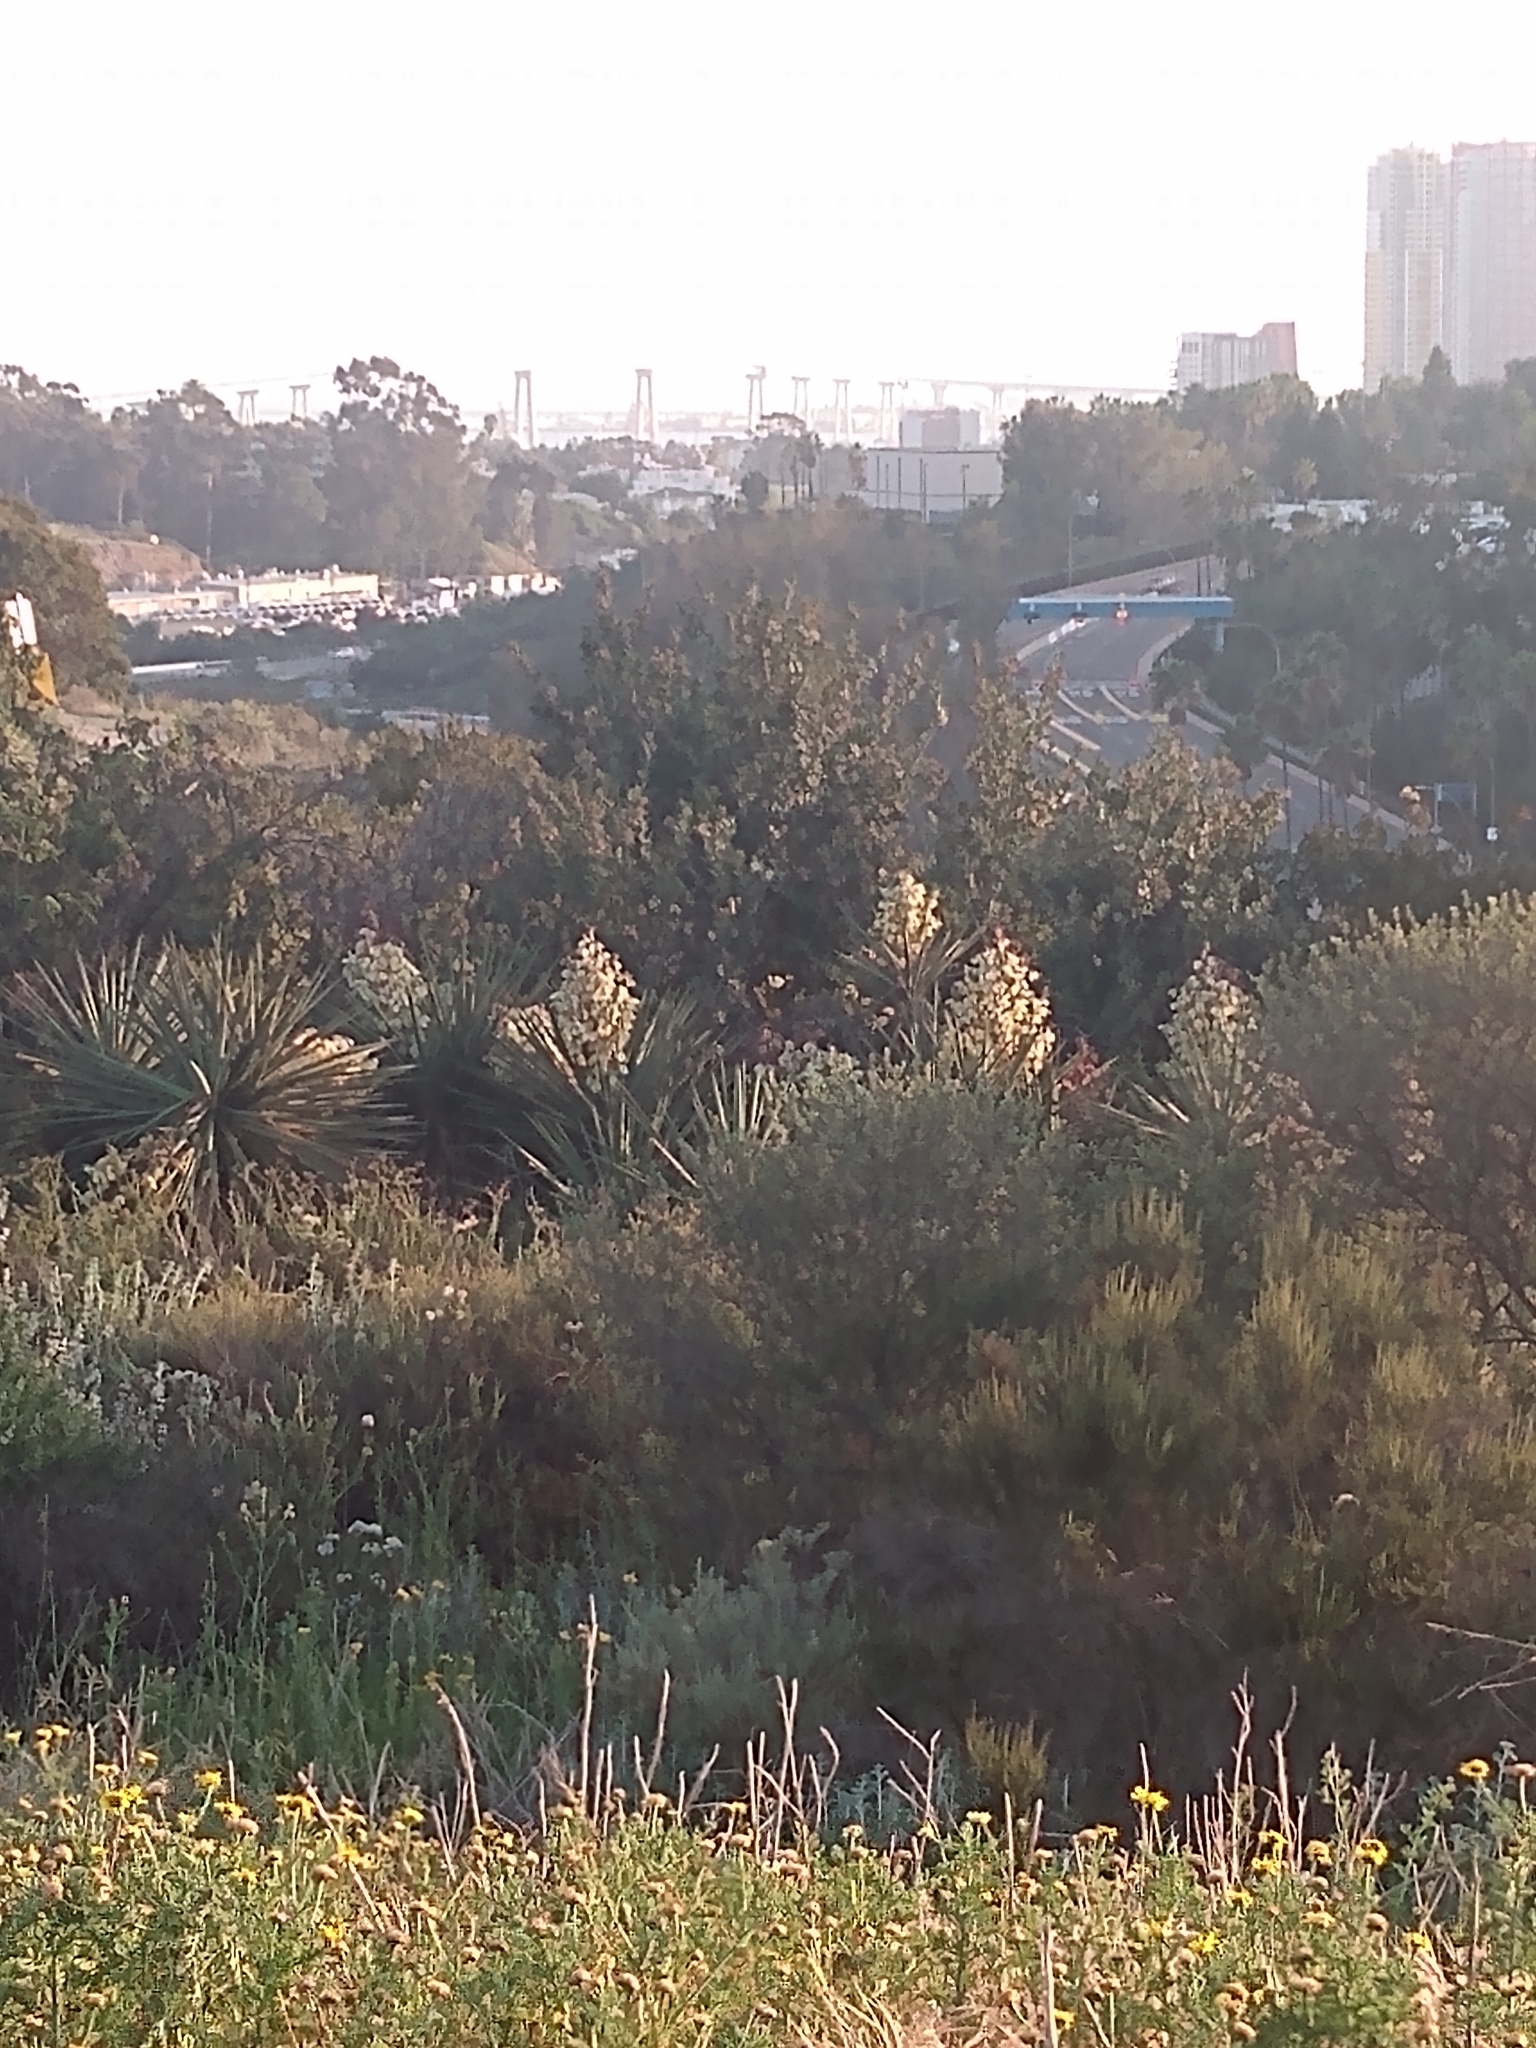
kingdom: Plantae
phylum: Tracheophyta
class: Liliopsida
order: Asparagales
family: Asparagaceae
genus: Yucca
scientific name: Yucca schidigera
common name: Mojave yucca
